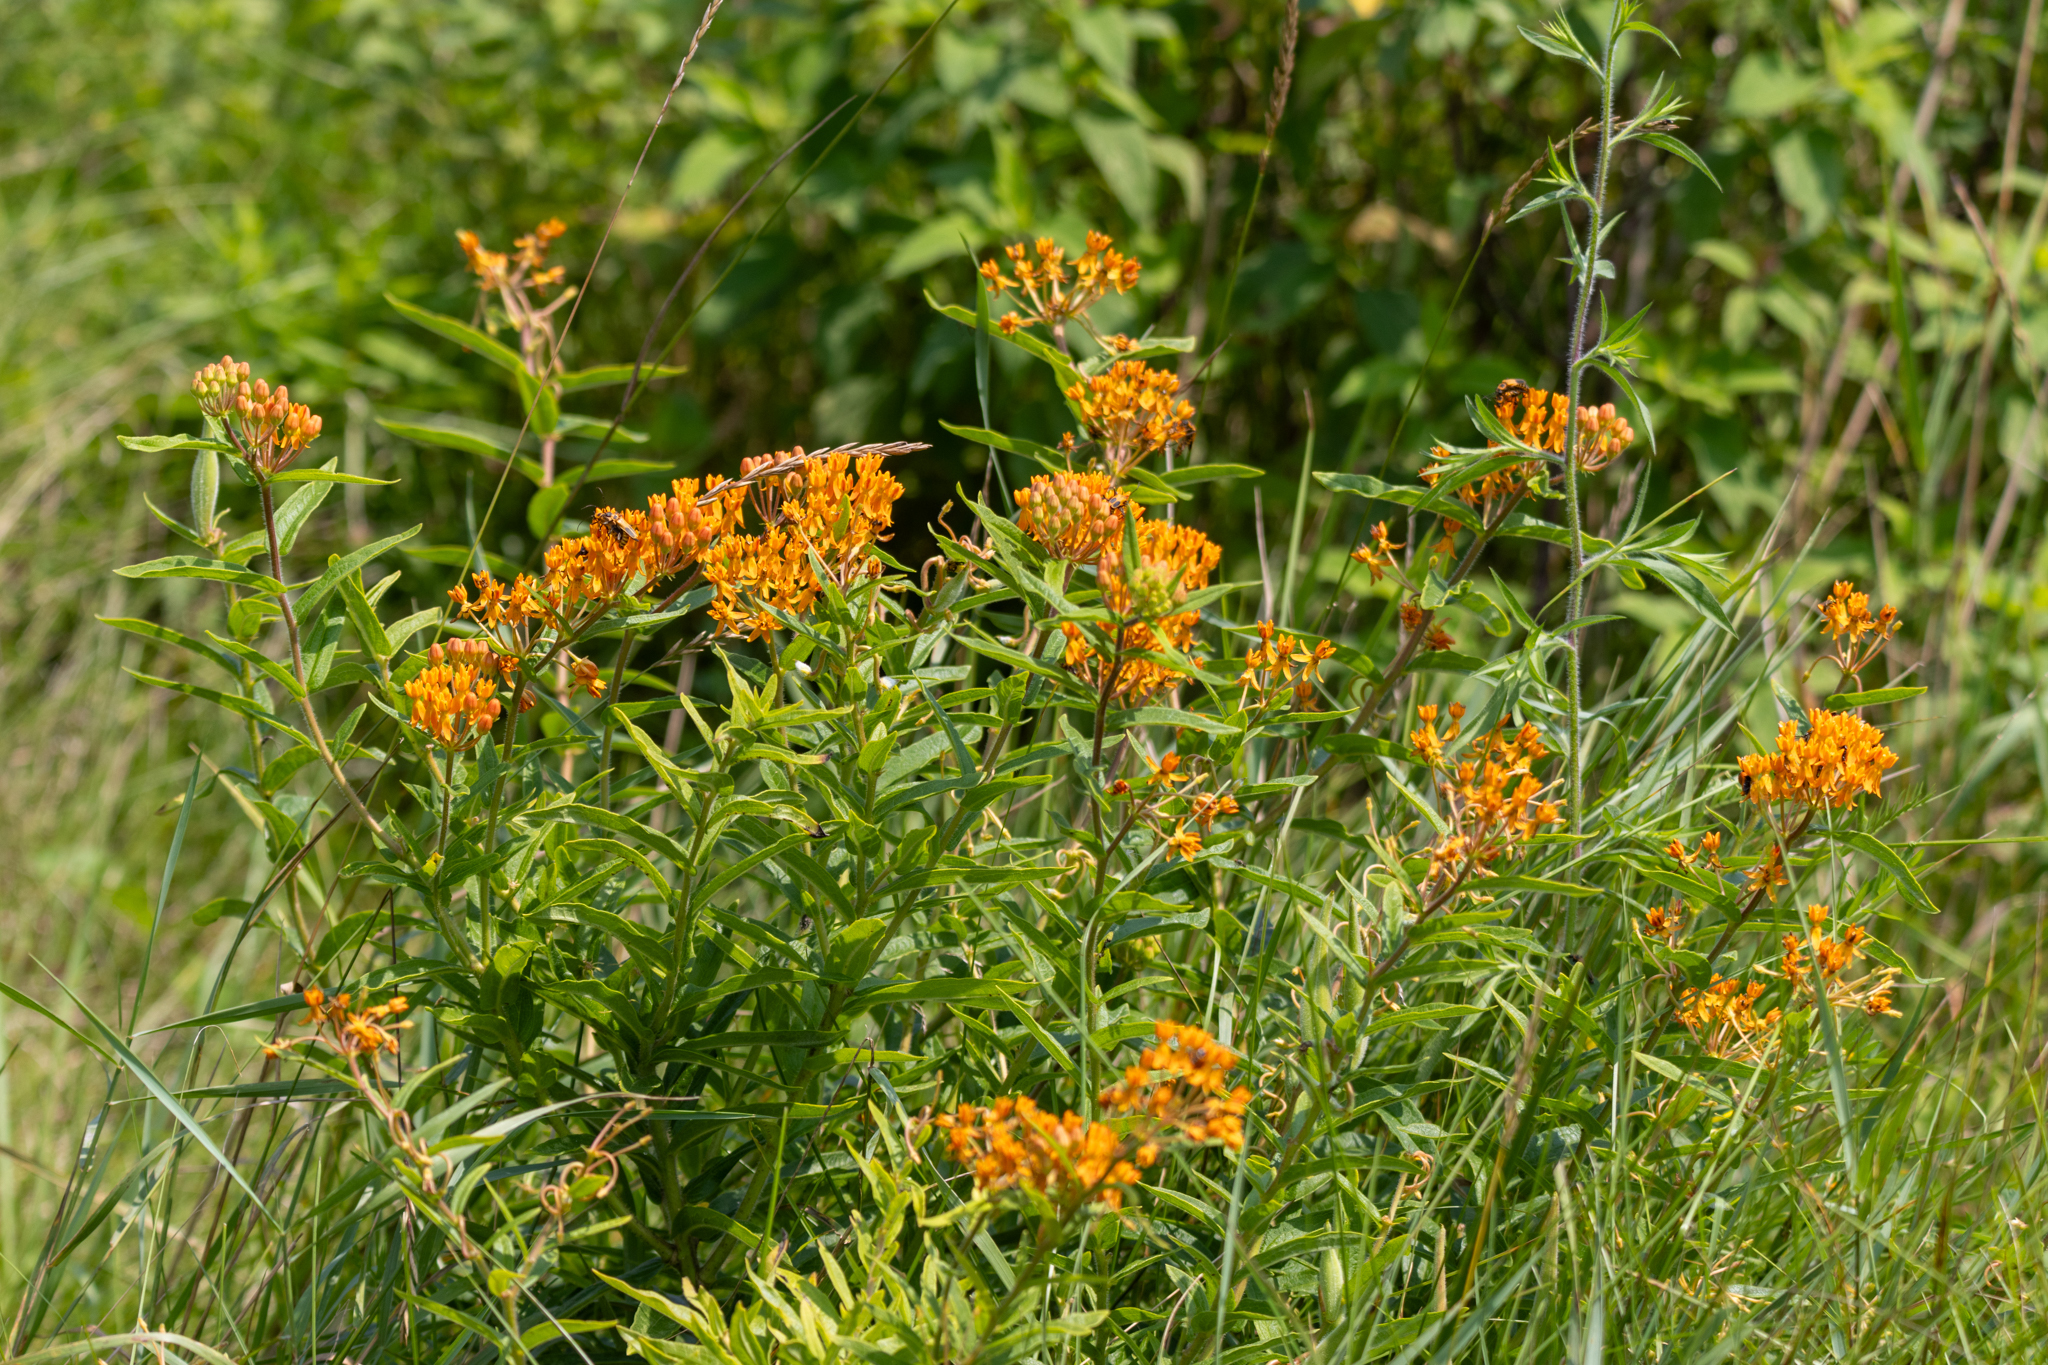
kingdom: Plantae
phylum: Tracheophyta
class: Magnoliopsida
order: Gentianales
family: Apocynaceae
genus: Asclepias
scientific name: Asclepias tuberosa
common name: Butterfly milkweed
